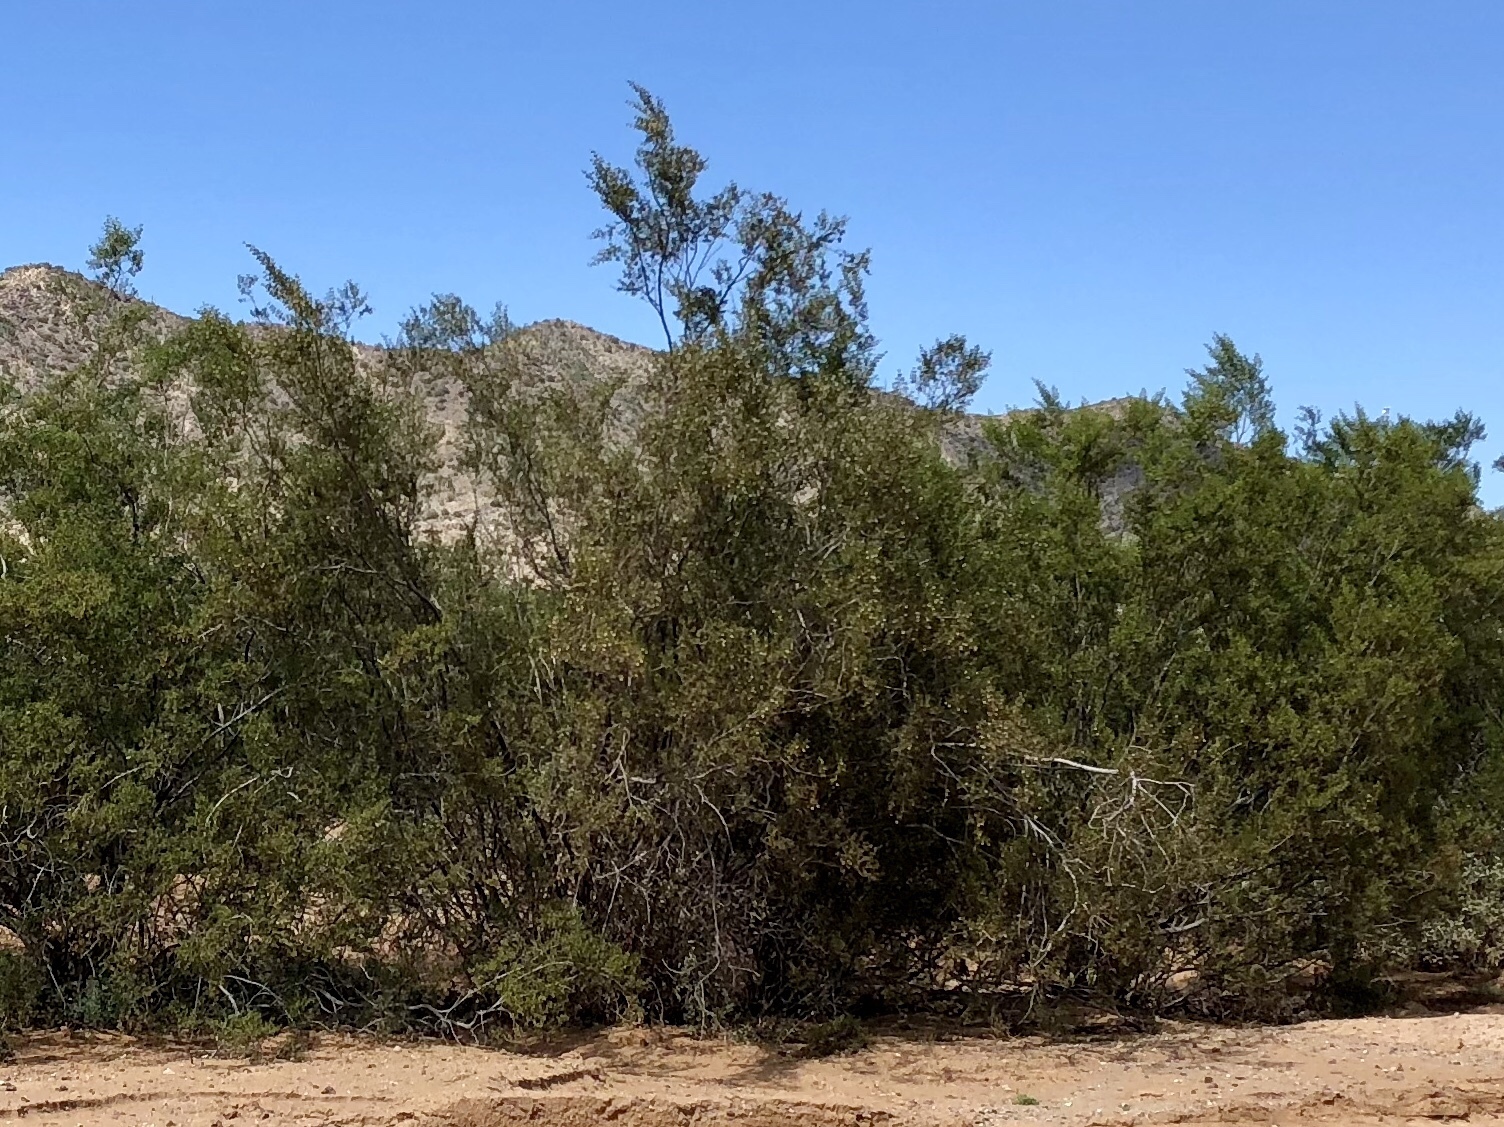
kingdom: Plantae
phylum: Tracheophyta
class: Magnoliopsida
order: Zygophyllales
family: Zygophyllaceae
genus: Larrea
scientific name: Larrea tridentata
